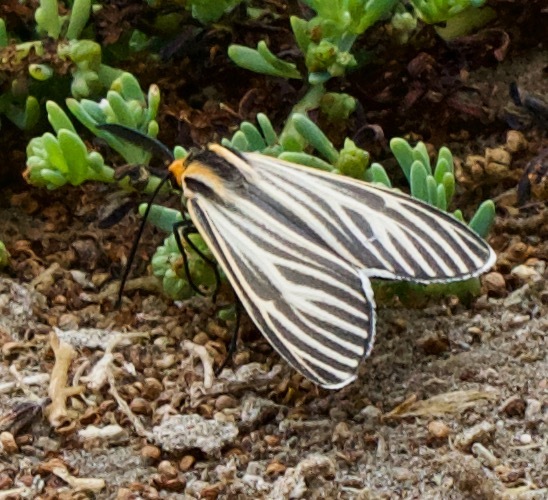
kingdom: Animalia
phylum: Arthropoda
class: Insecta
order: Lepidoptera
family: Erebidae
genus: Ctenucha
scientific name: Ctenucha vittigerum
